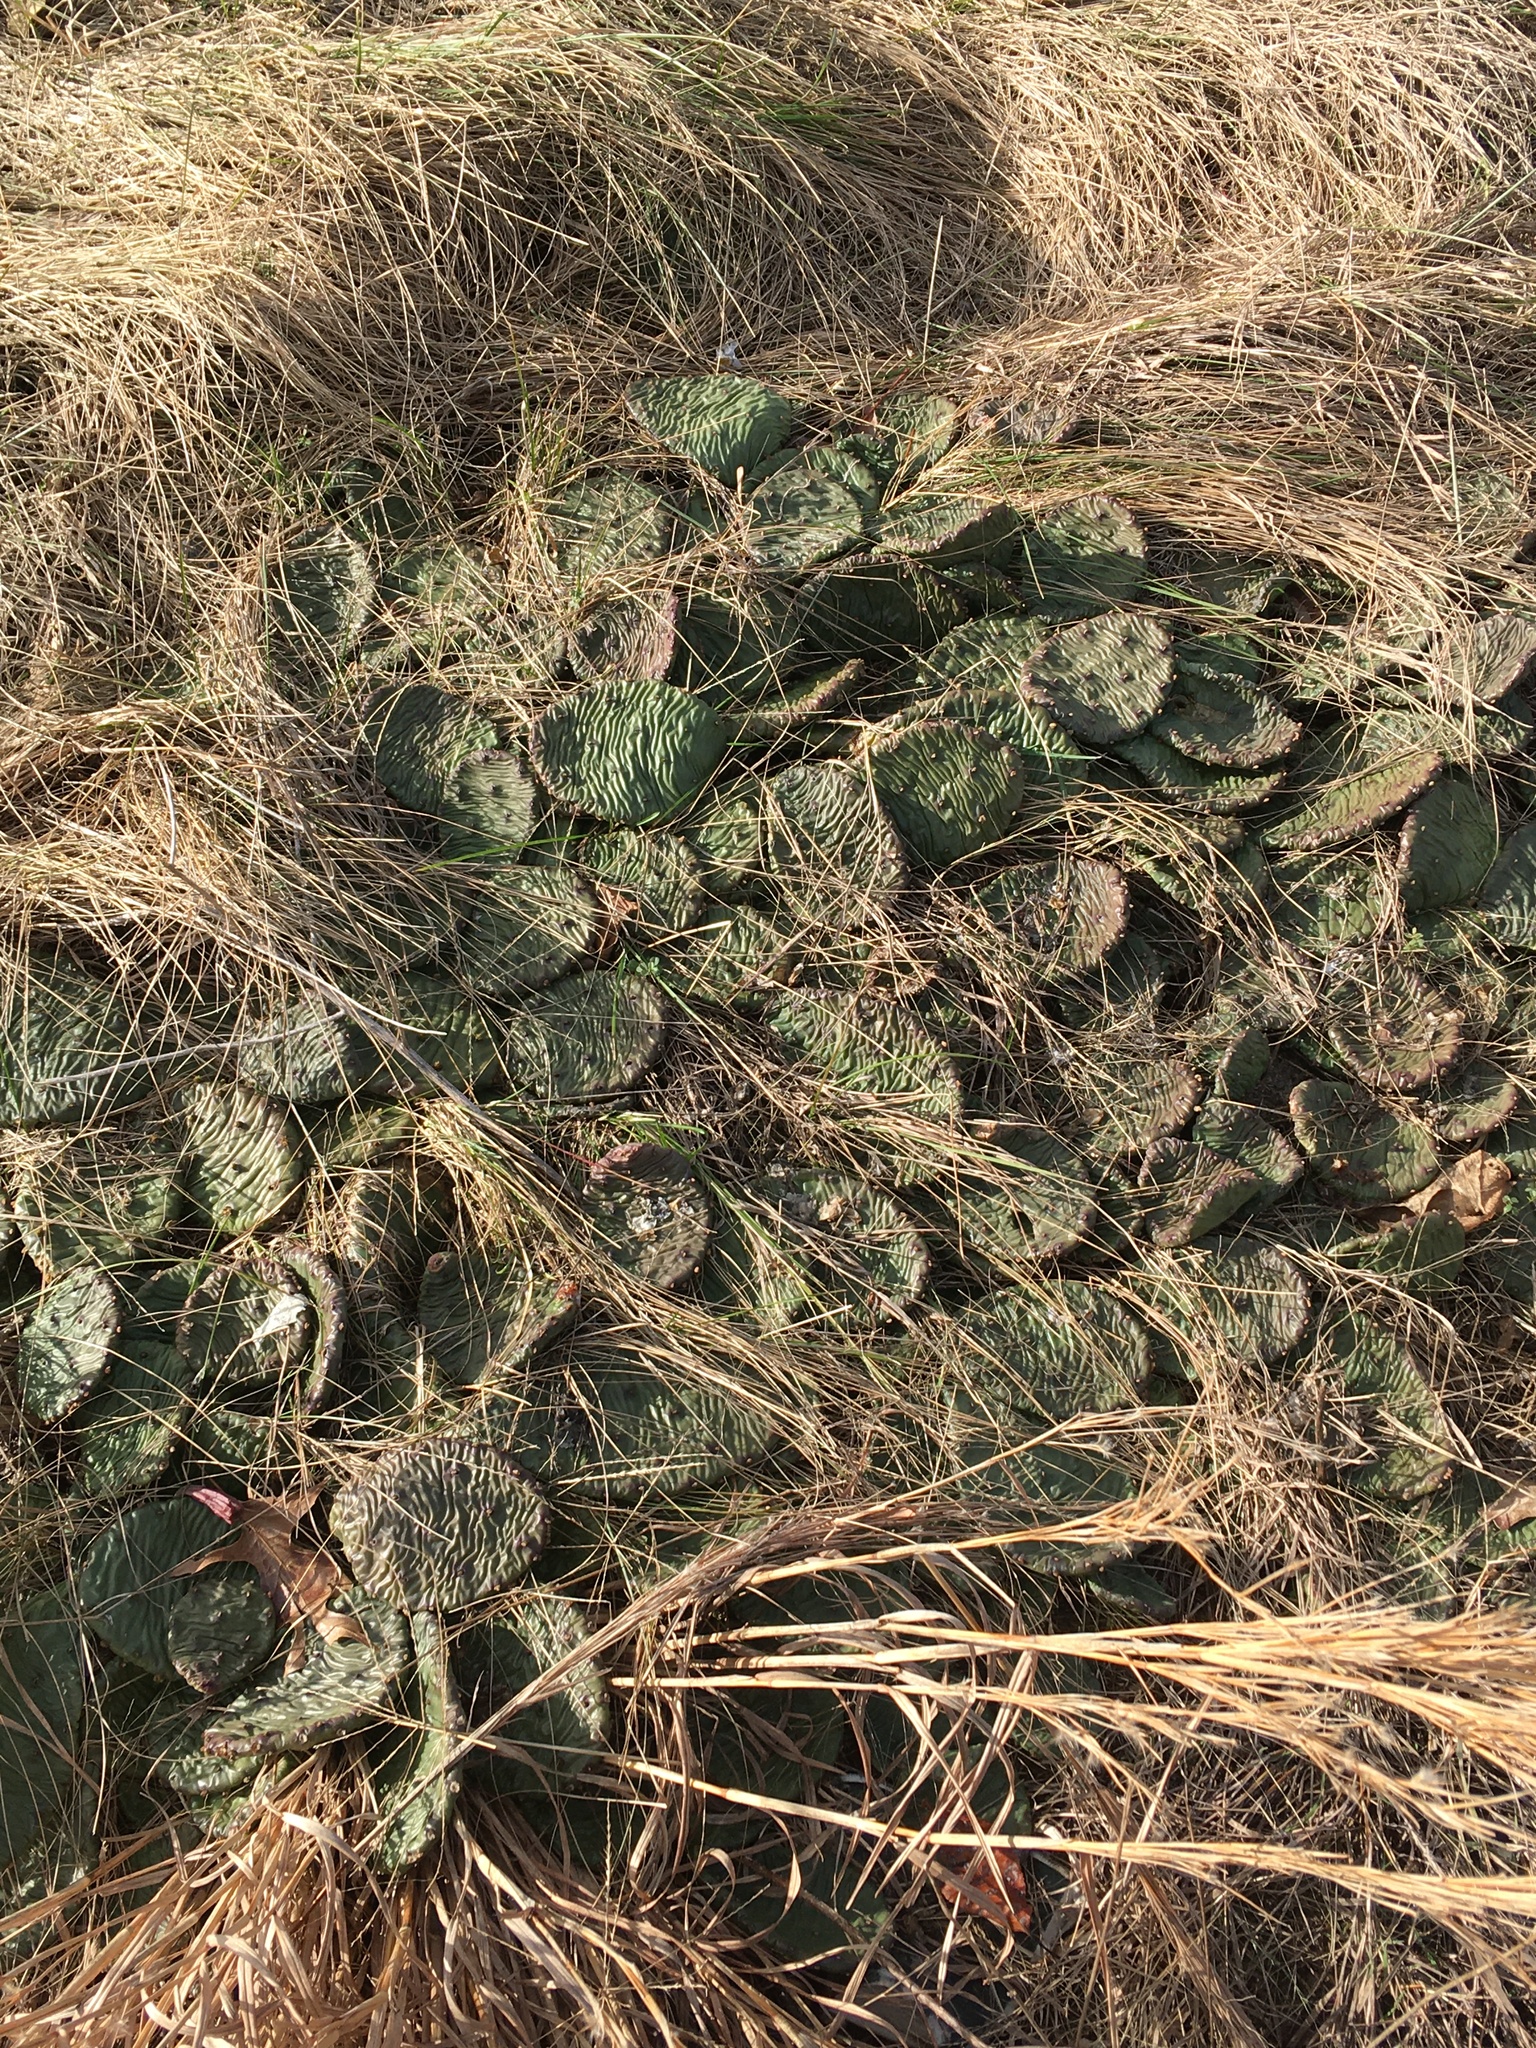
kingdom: Plantae
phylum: Tracheophyta
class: Magnoliopsida
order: Caryophyllales
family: Cactaceae
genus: Opuntia
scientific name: Opuntia humifusa
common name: Eastern prickly-pear
